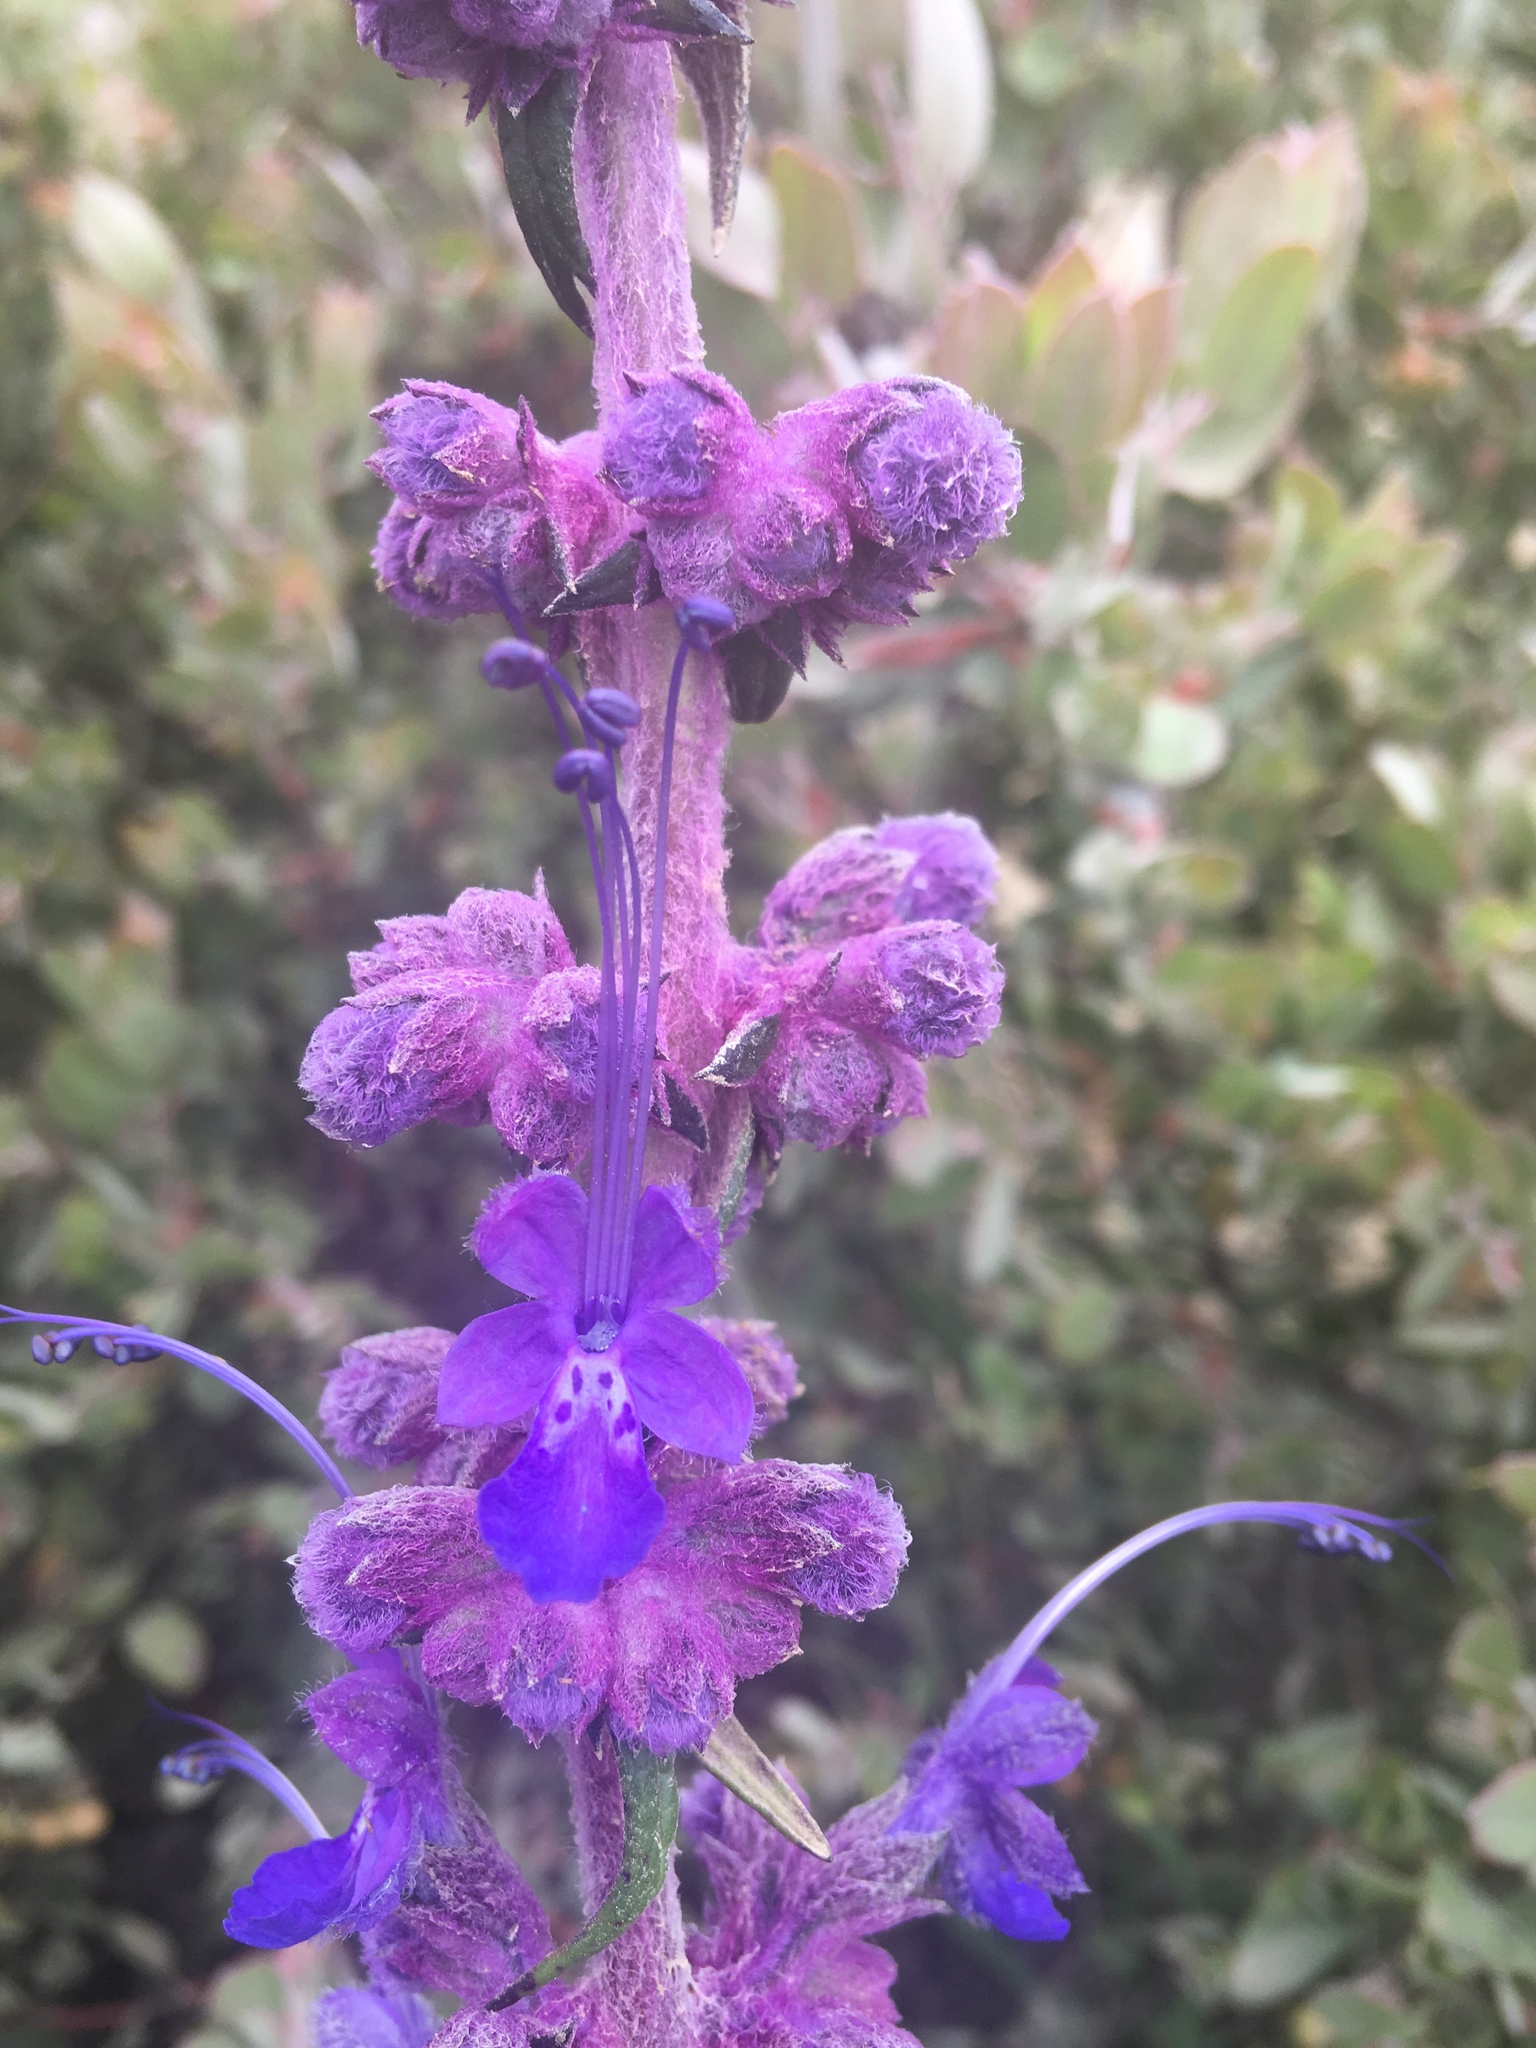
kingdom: Plantae
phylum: Tracheophyta
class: Magnoliopsida
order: Lamiales
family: Lamiaceae
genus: Trichostema
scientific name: Trichostema lanatum
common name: Woolly bluecurls
